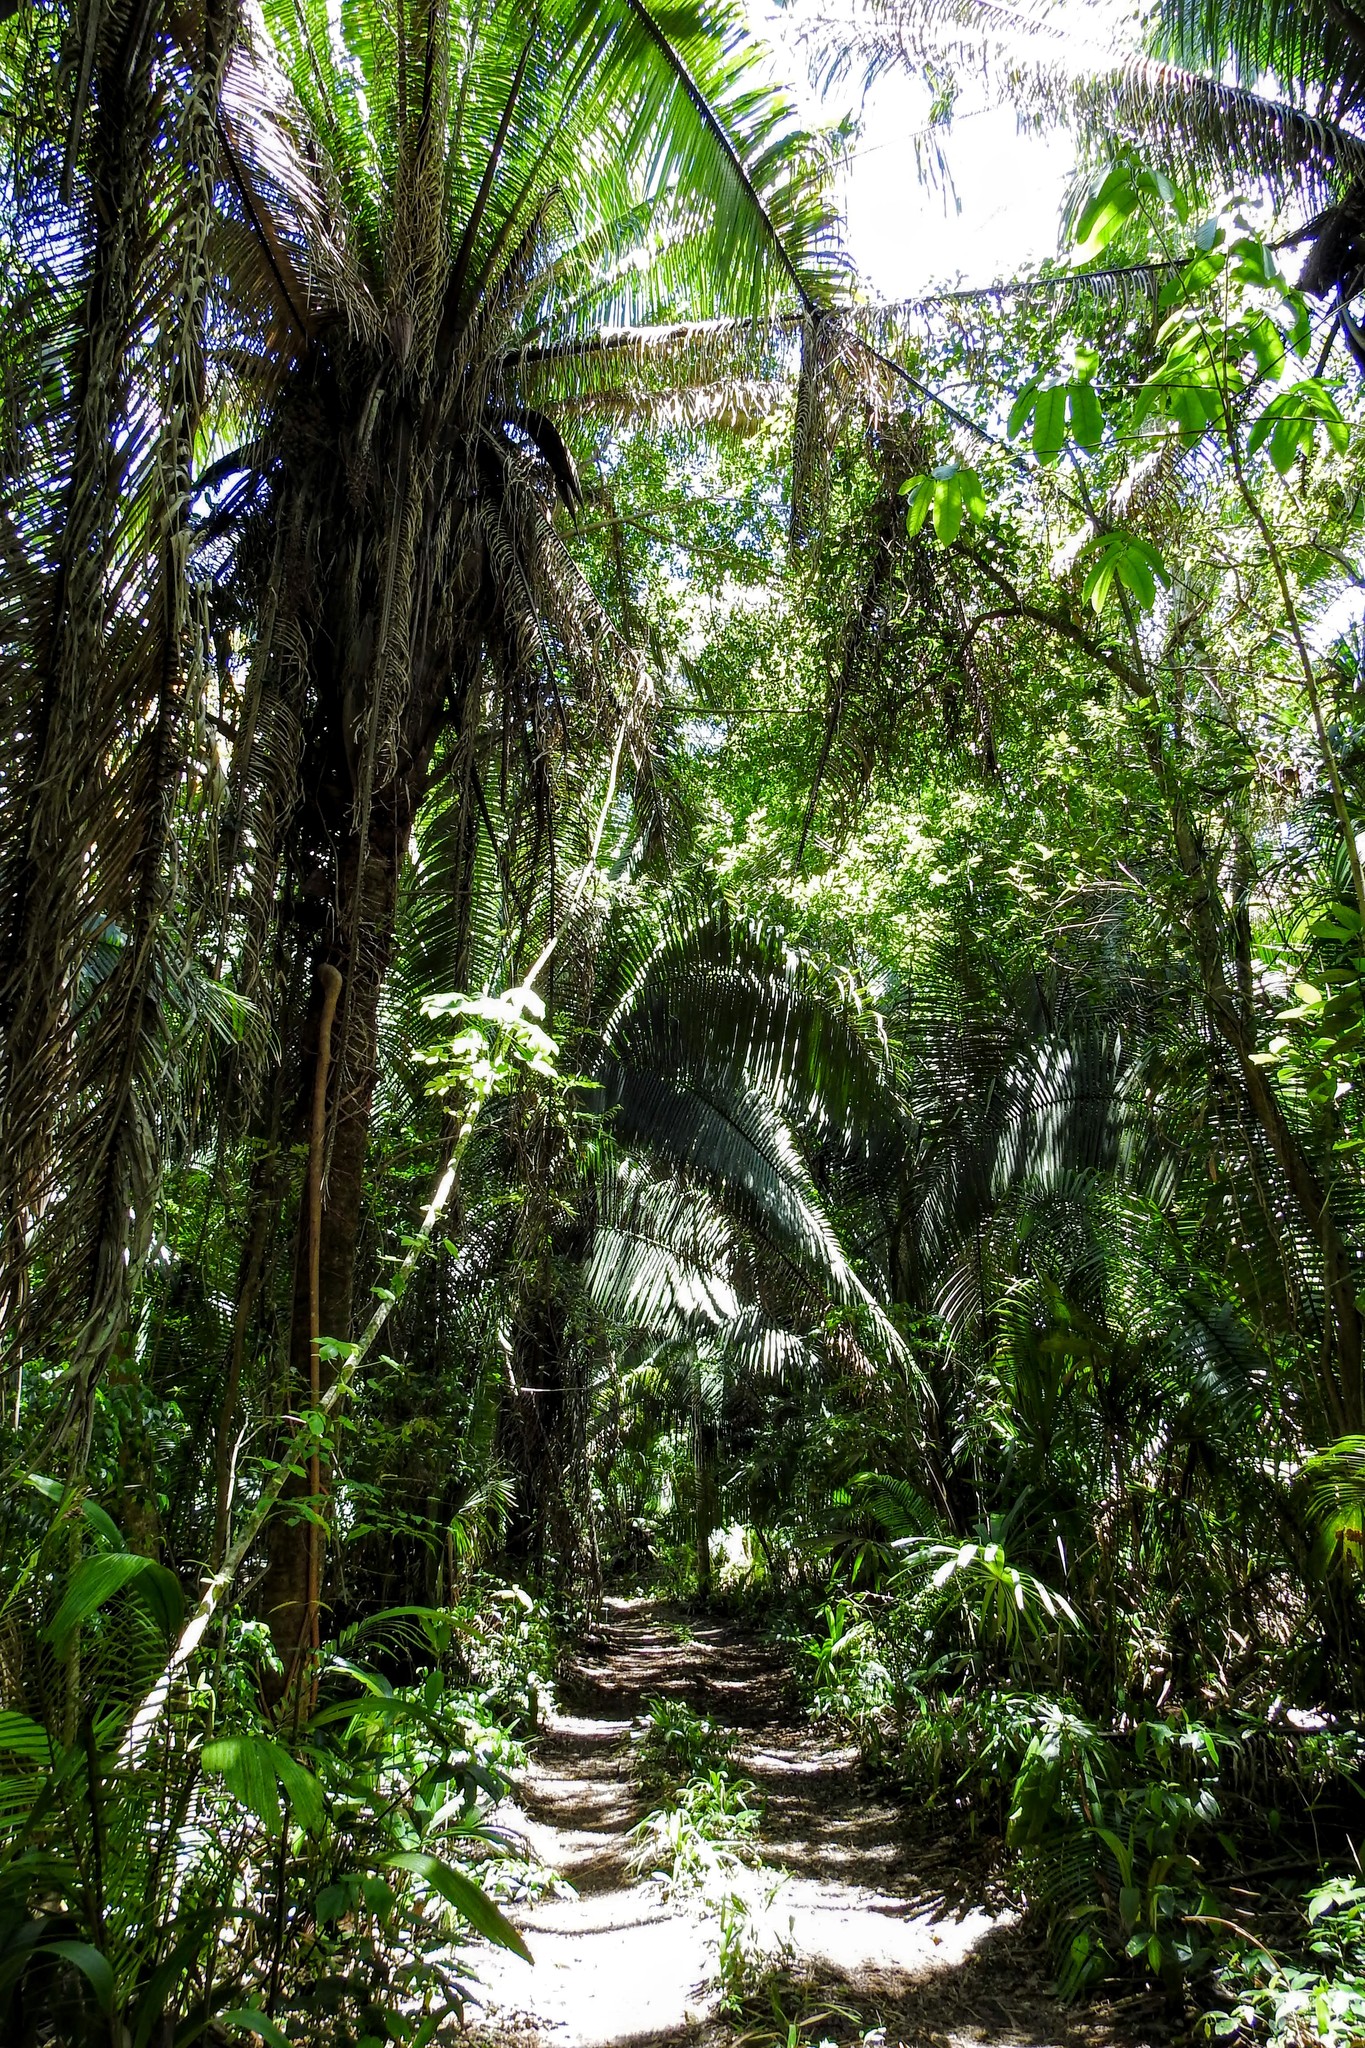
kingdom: Plantae
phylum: Tracheophyta
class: Liliopsida
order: Arecales
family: Arecaceae
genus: Attalea
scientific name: Attalea cohune
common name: Cohune palm
